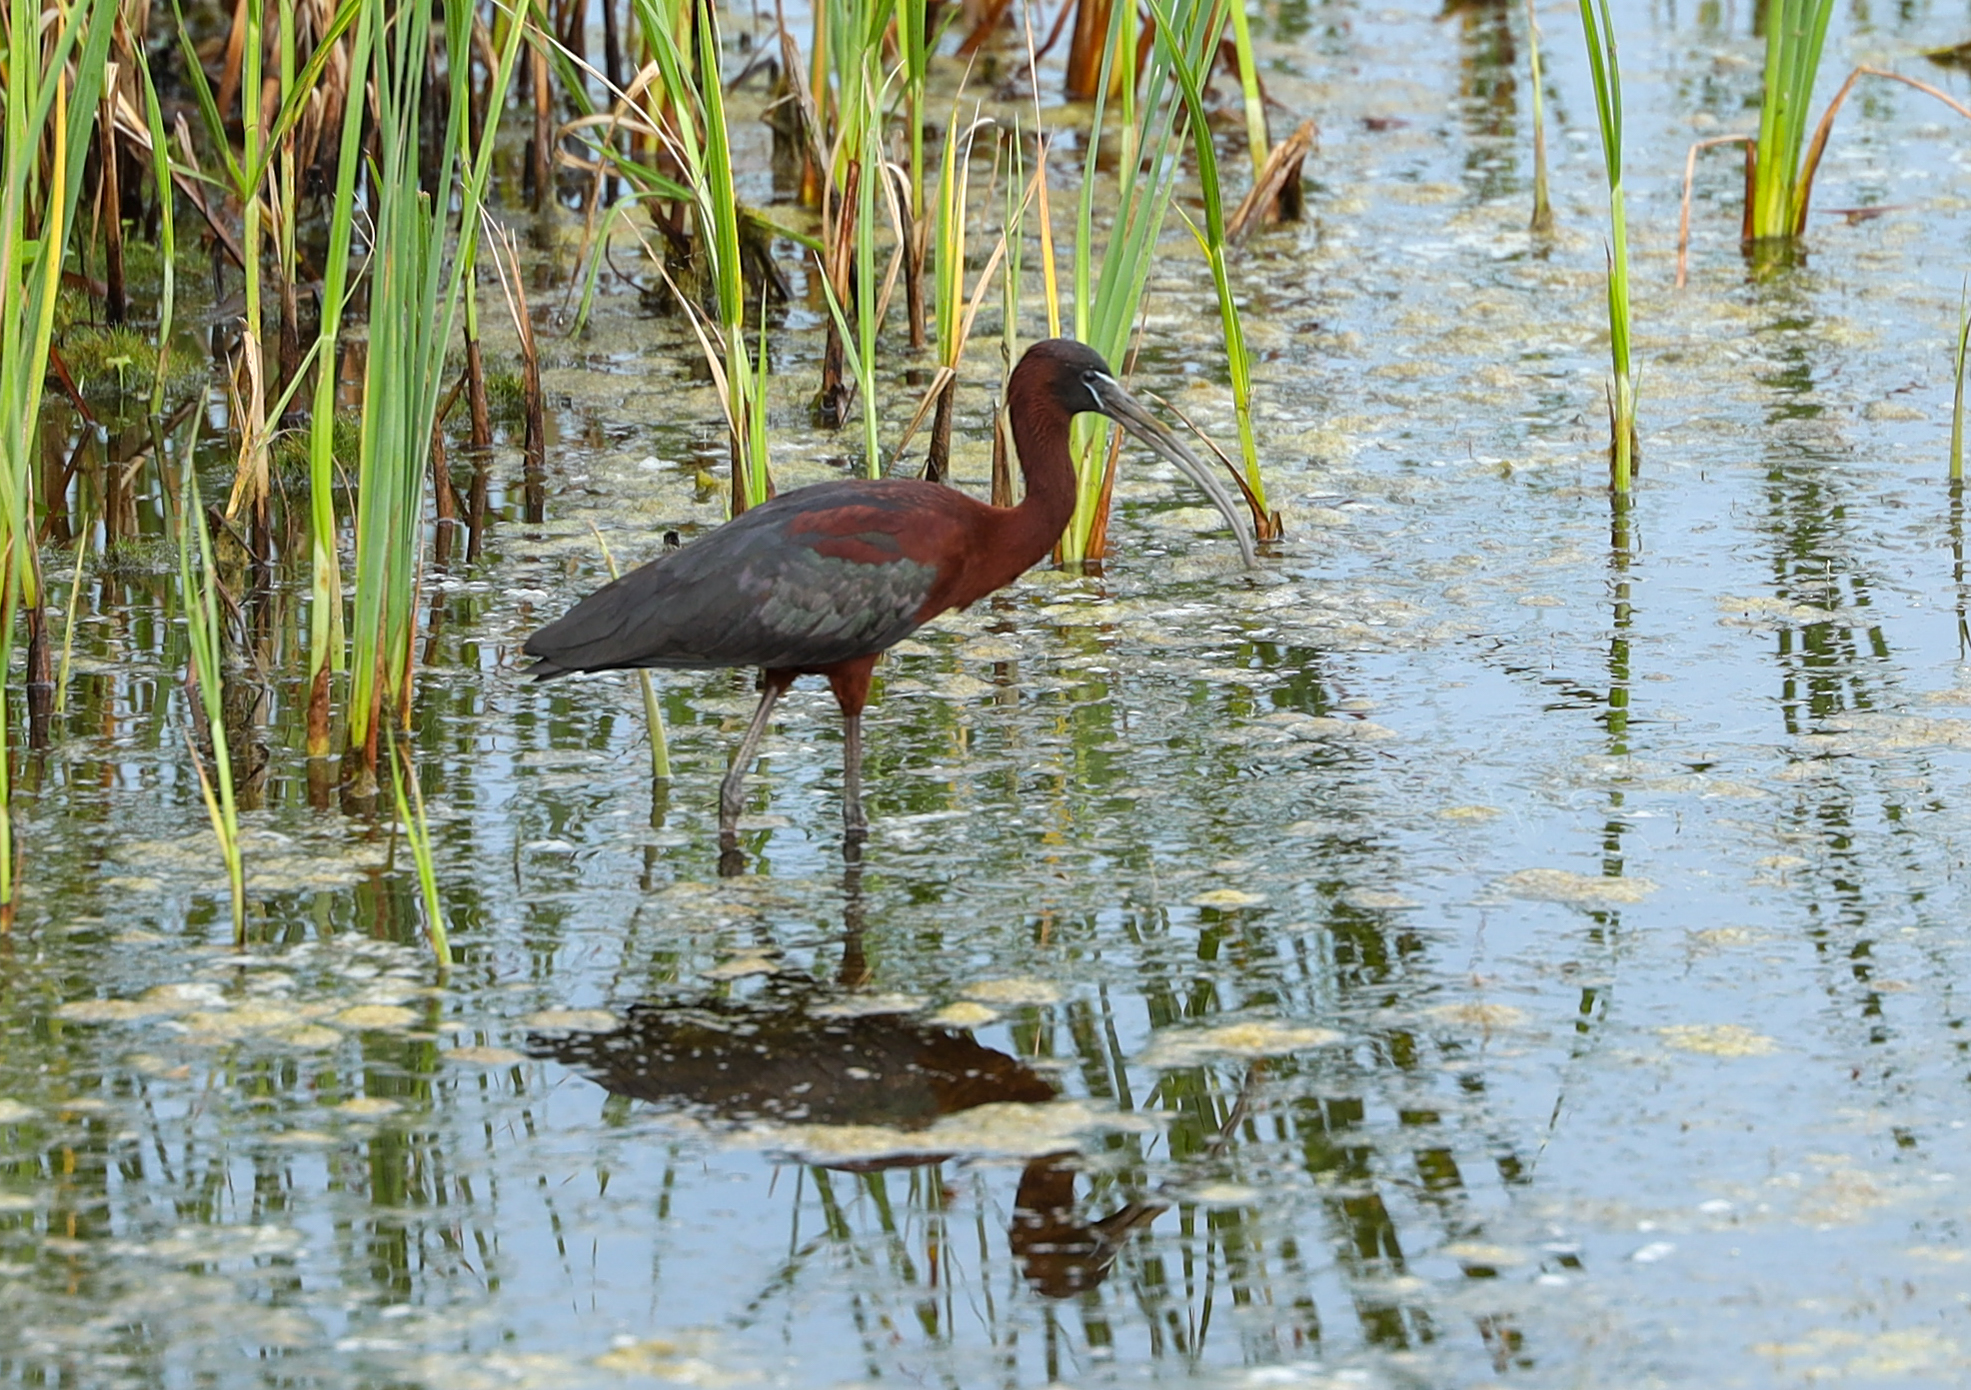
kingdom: Animalia
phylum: Chordata
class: Aves
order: Pelecaniformes
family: Threskiornithidae
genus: Plegadis
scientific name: Plegadis falcinellus
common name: Glossy ibis
